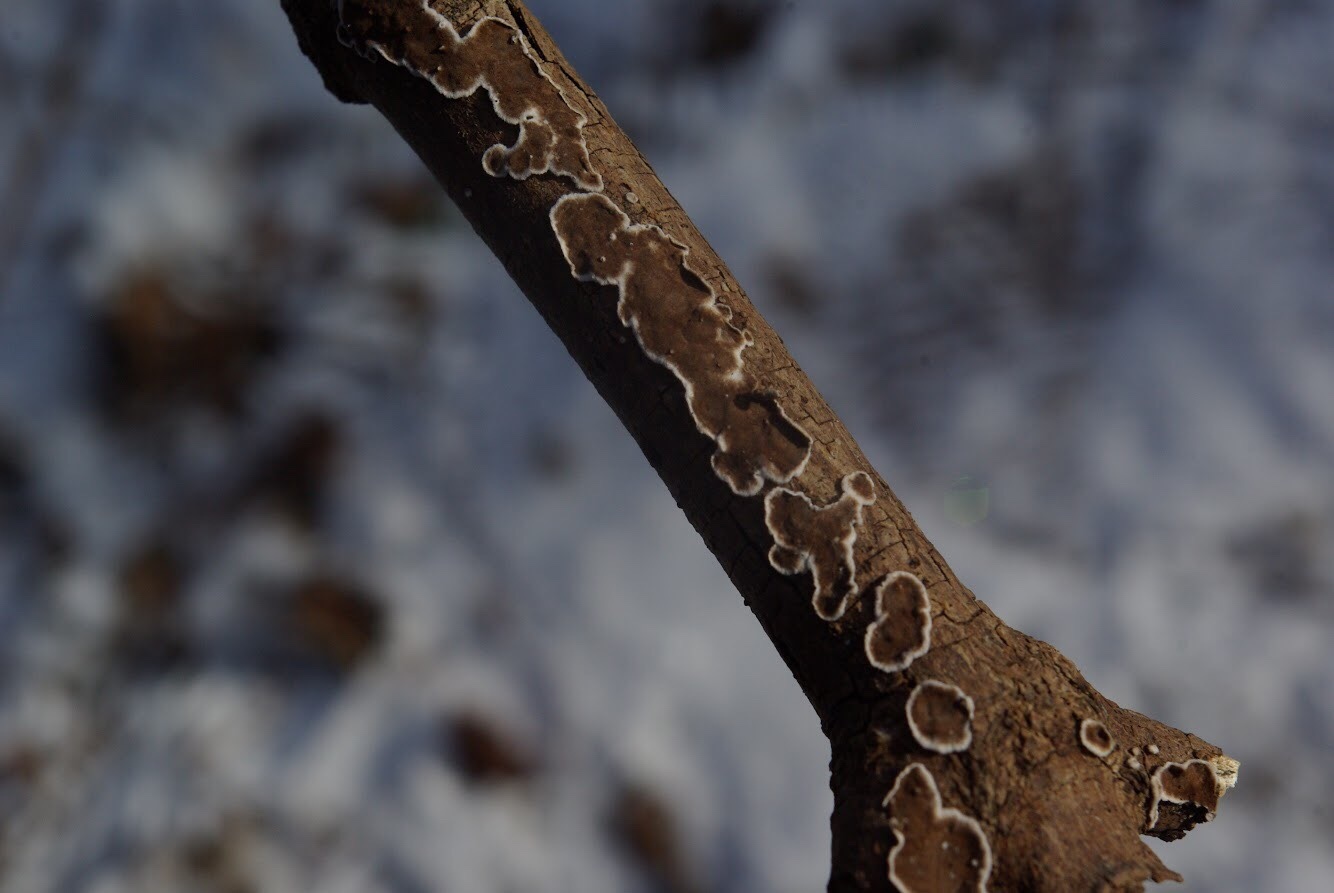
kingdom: Fungi
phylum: Basidiomycota
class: Agaricomycetes
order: Russulales
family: Peniophoraceae
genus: Peniophora
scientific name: Peniophora albobadia
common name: Giraffe spots
